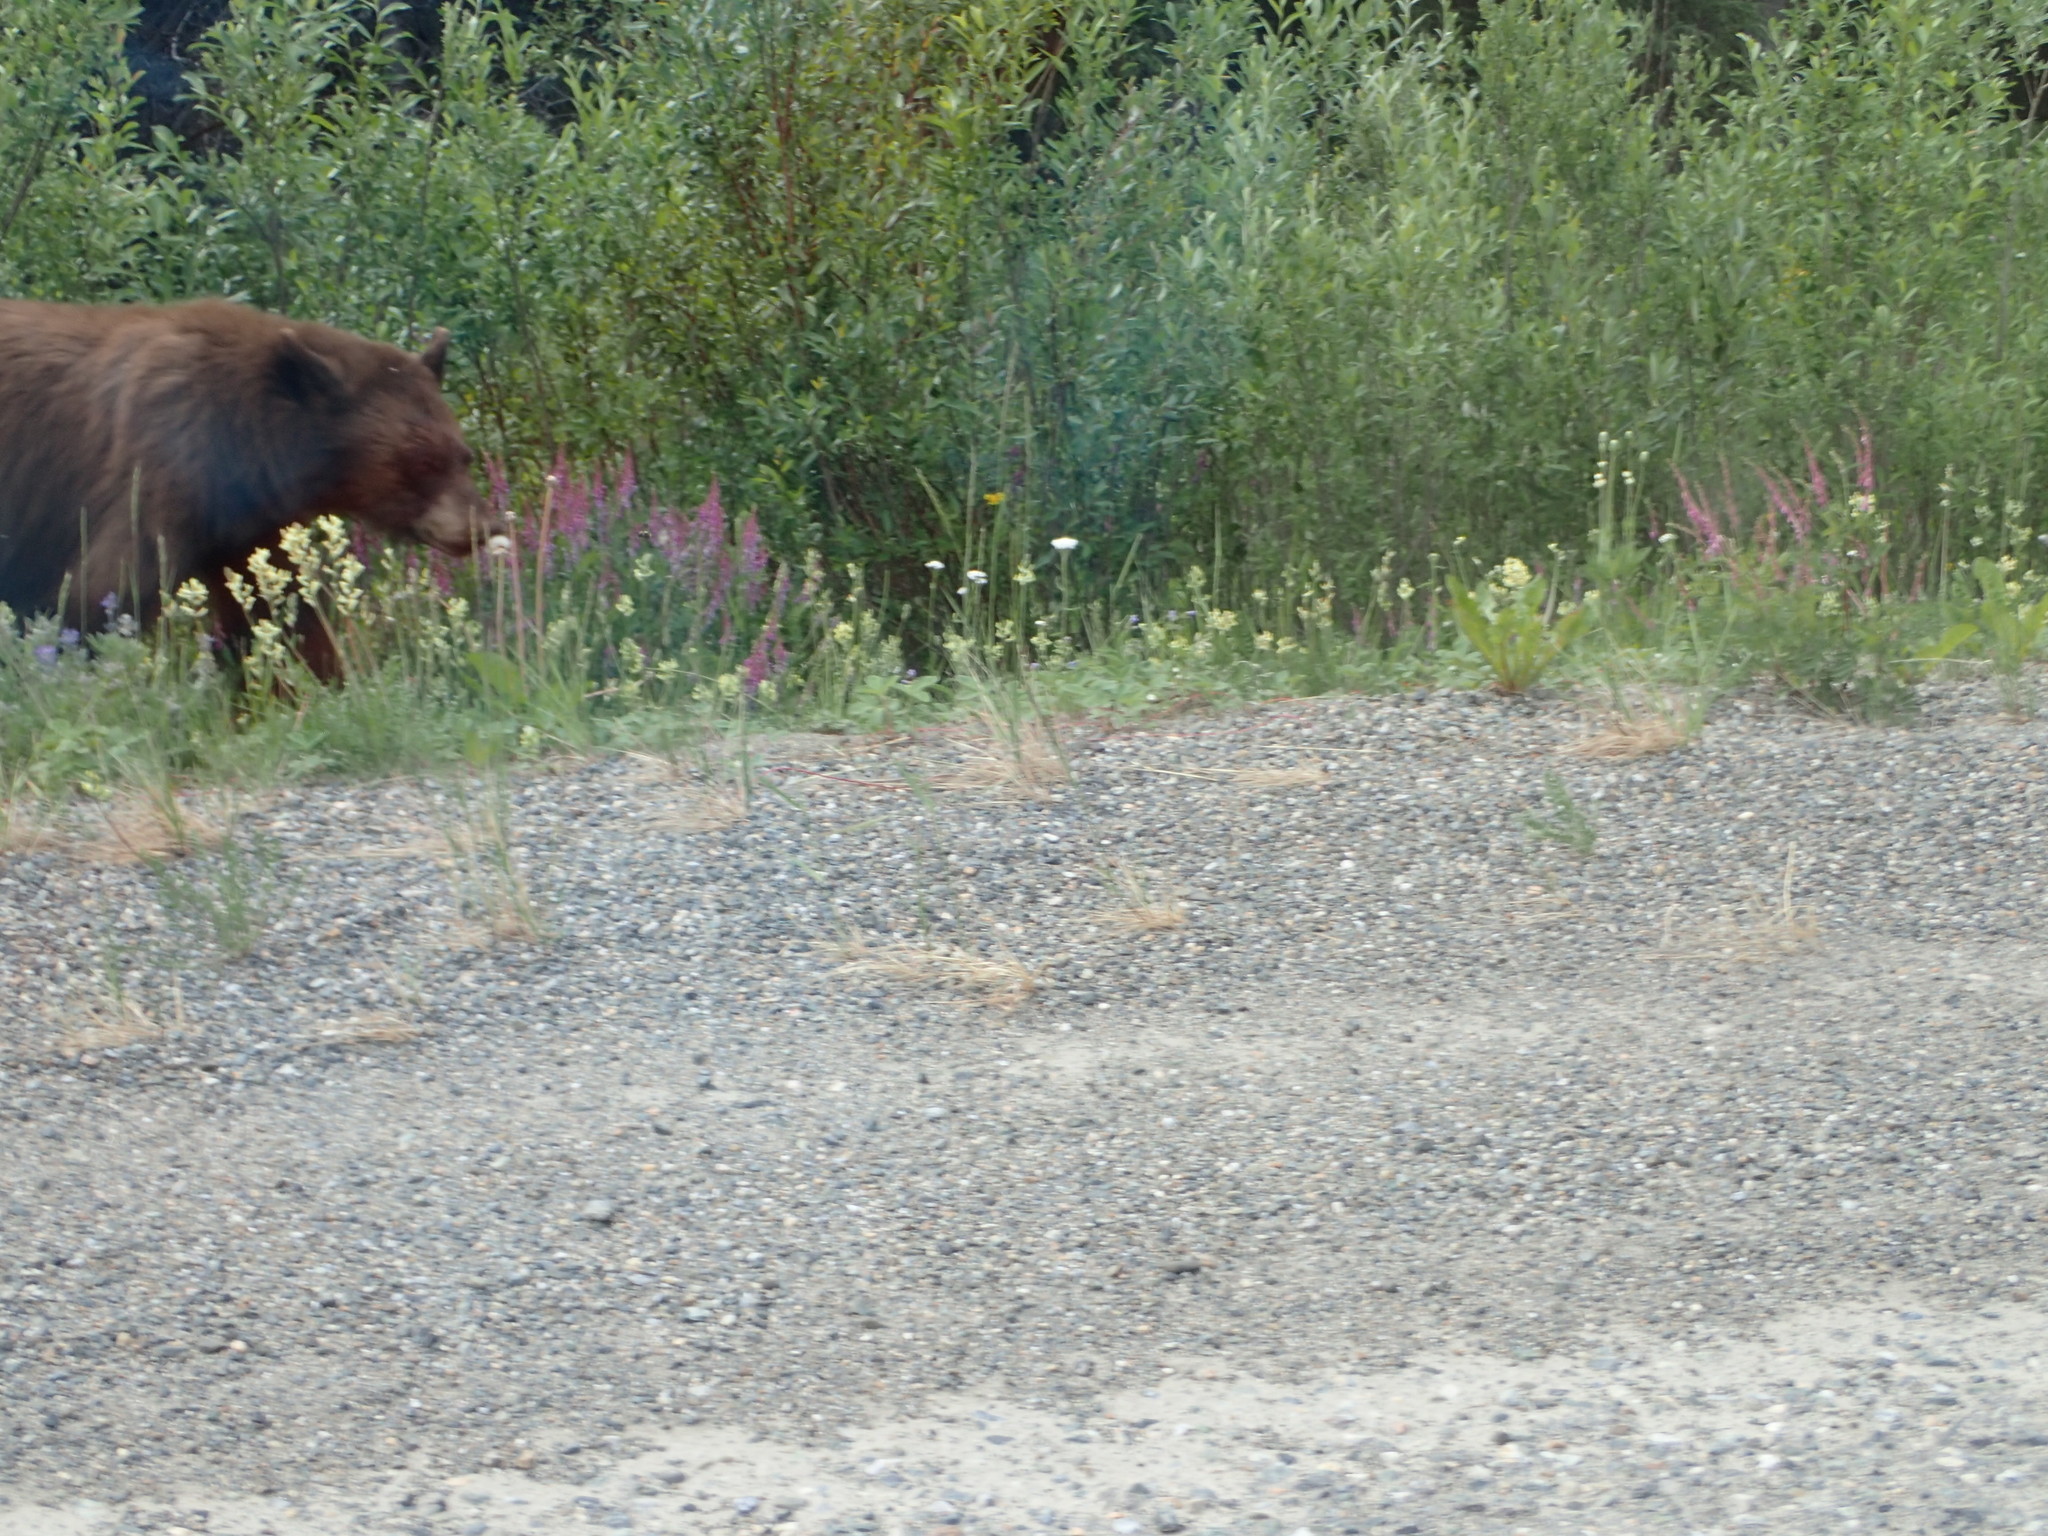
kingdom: Animalia
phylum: Chordata
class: Mammalia
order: Carnivora
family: Ursidae
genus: Ursus
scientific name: Ursus americanus
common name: American black bear
